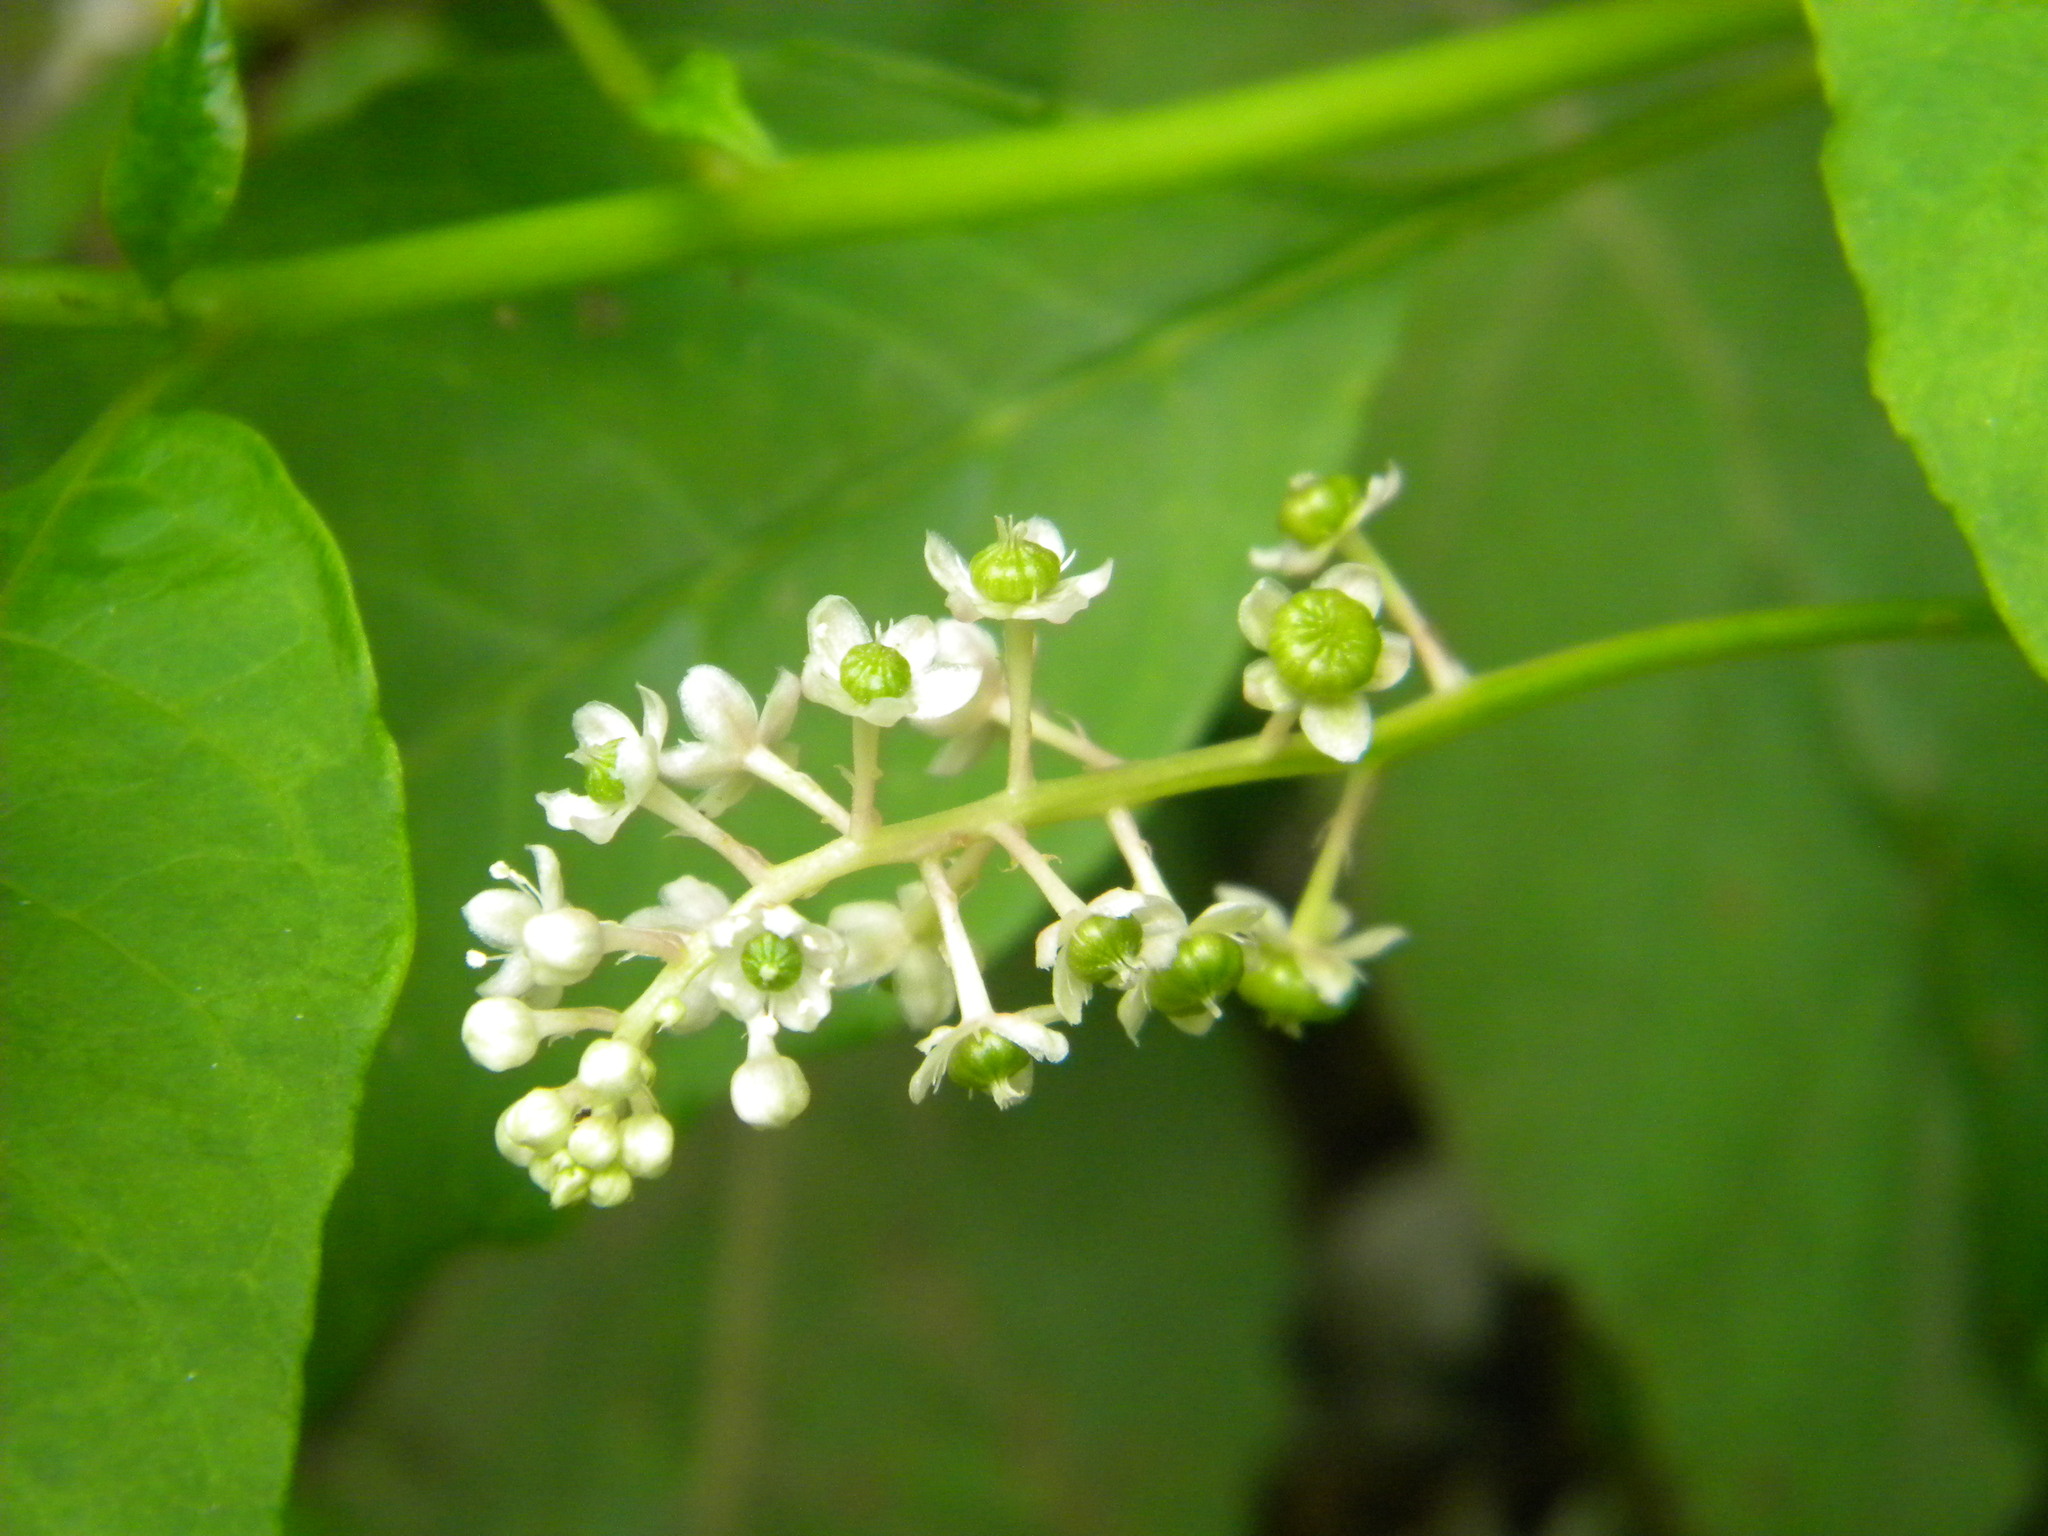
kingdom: Plantae
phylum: Tracheophyta
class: Magnoliopsida
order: Caryophyllales
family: Phytolaccaceae
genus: Phytolacca
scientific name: Phytolacca americana
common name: American pokeweed
